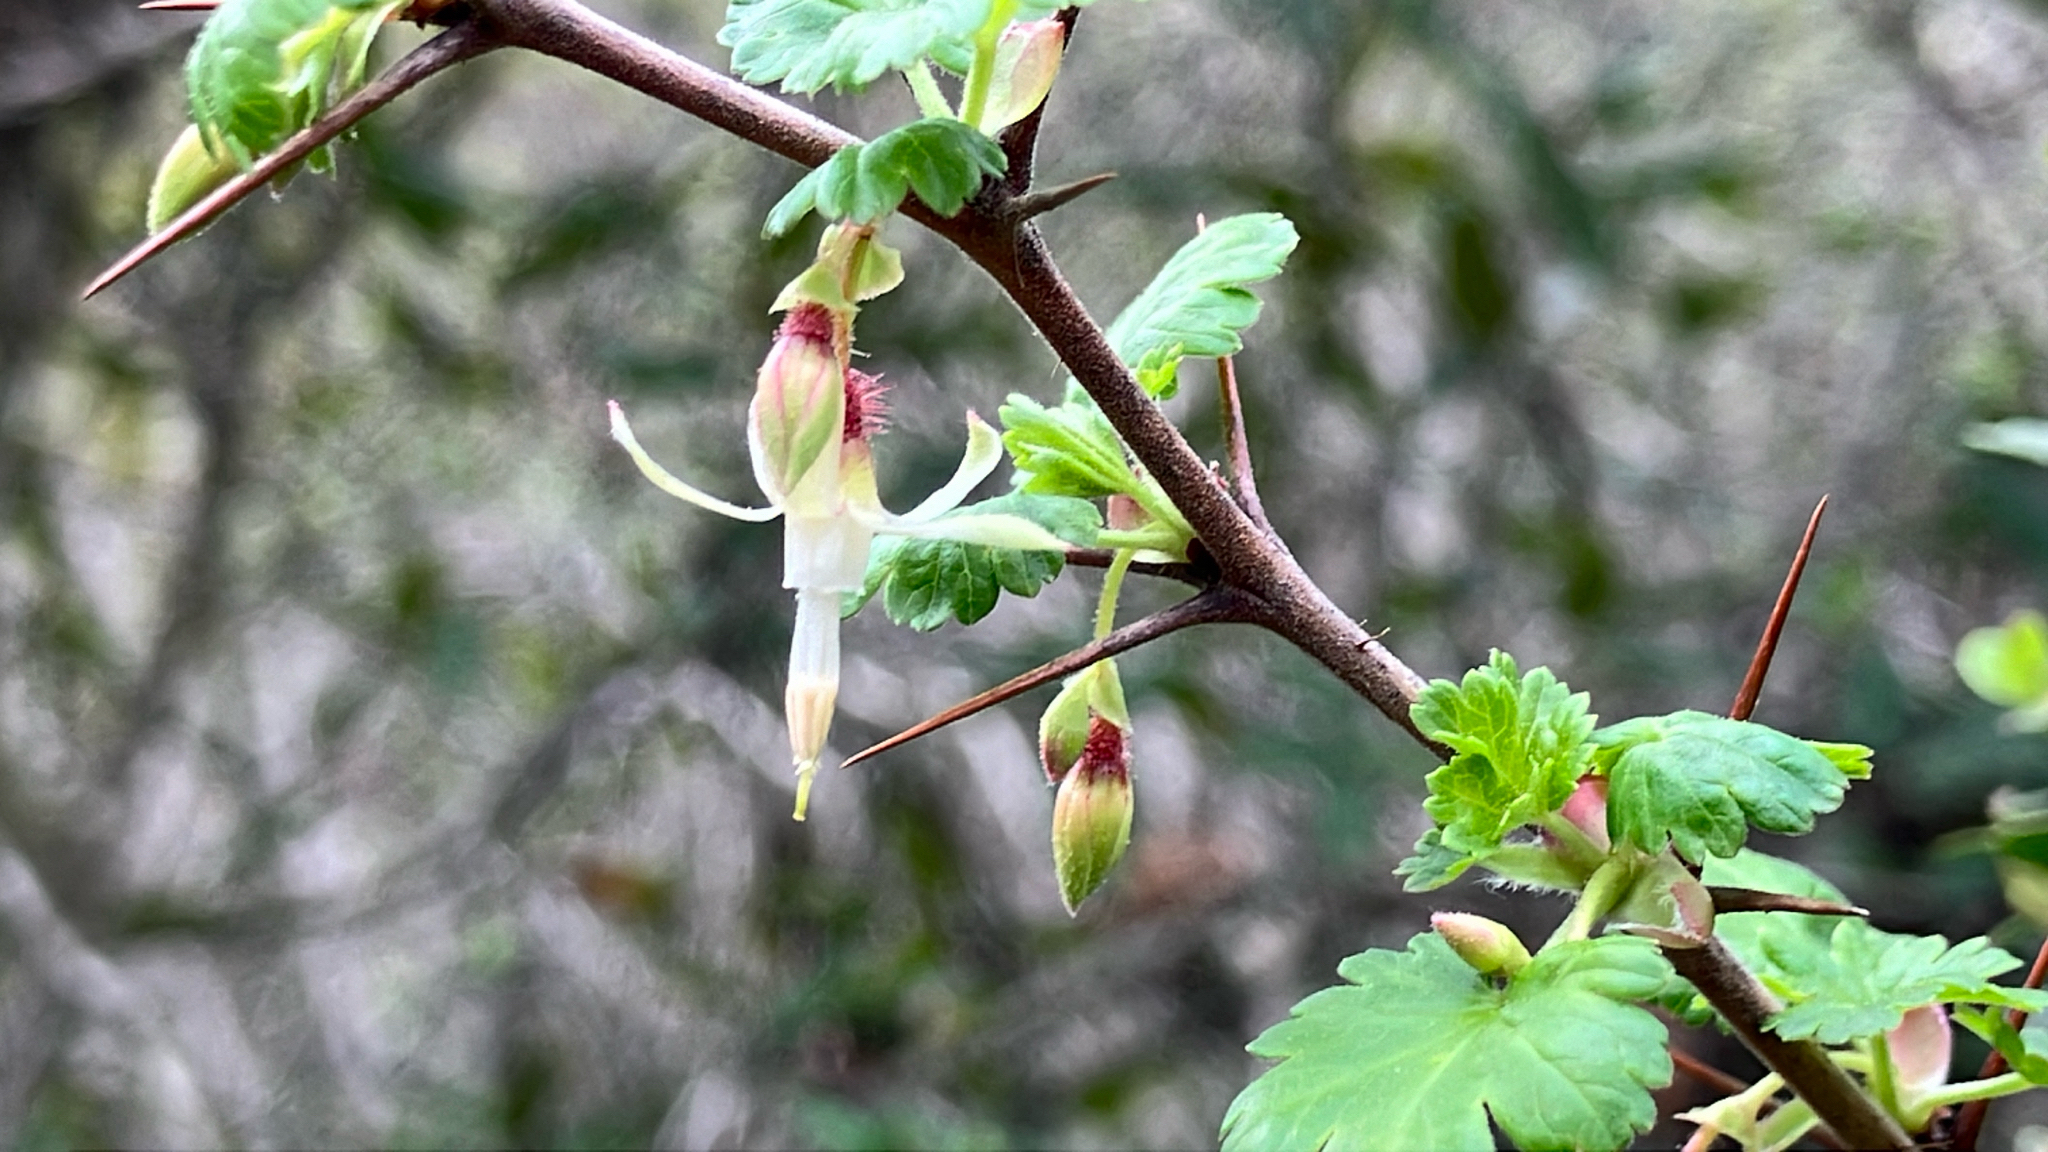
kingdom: Plantae
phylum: Tracheophyta
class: Magnoliopsida
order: Saxifragales
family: Grossulariaceae
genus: Ribes
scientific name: Ribes californicum
